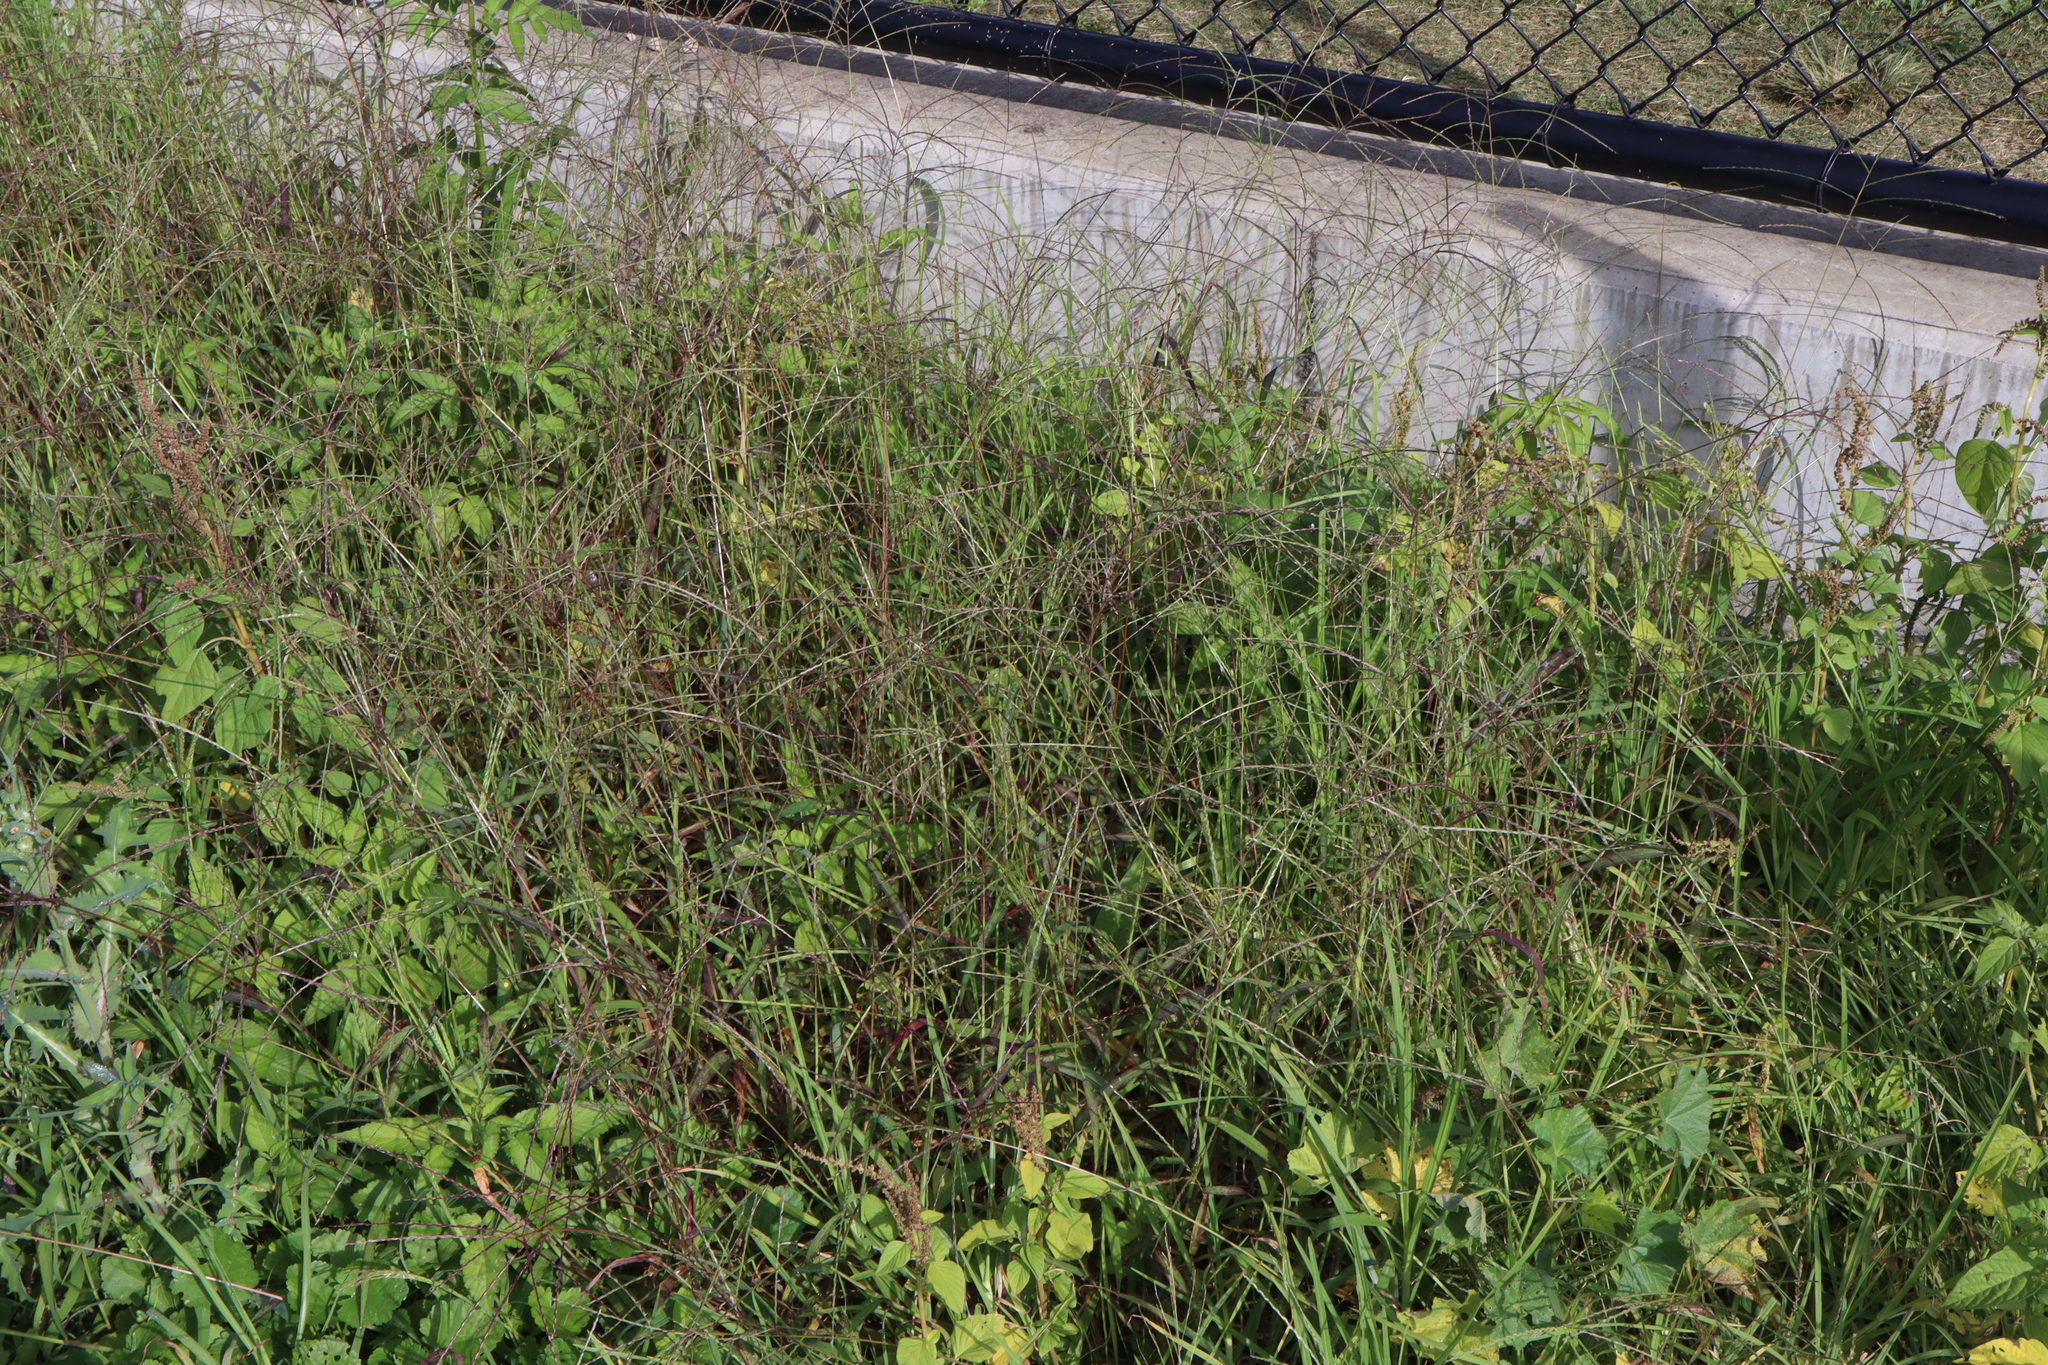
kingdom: Plantae
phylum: Tracheophyta
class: Liliopsida
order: Poales
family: Poaceae
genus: Digitaria
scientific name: Digitaria sanguinalis
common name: Hairy crabgrass
